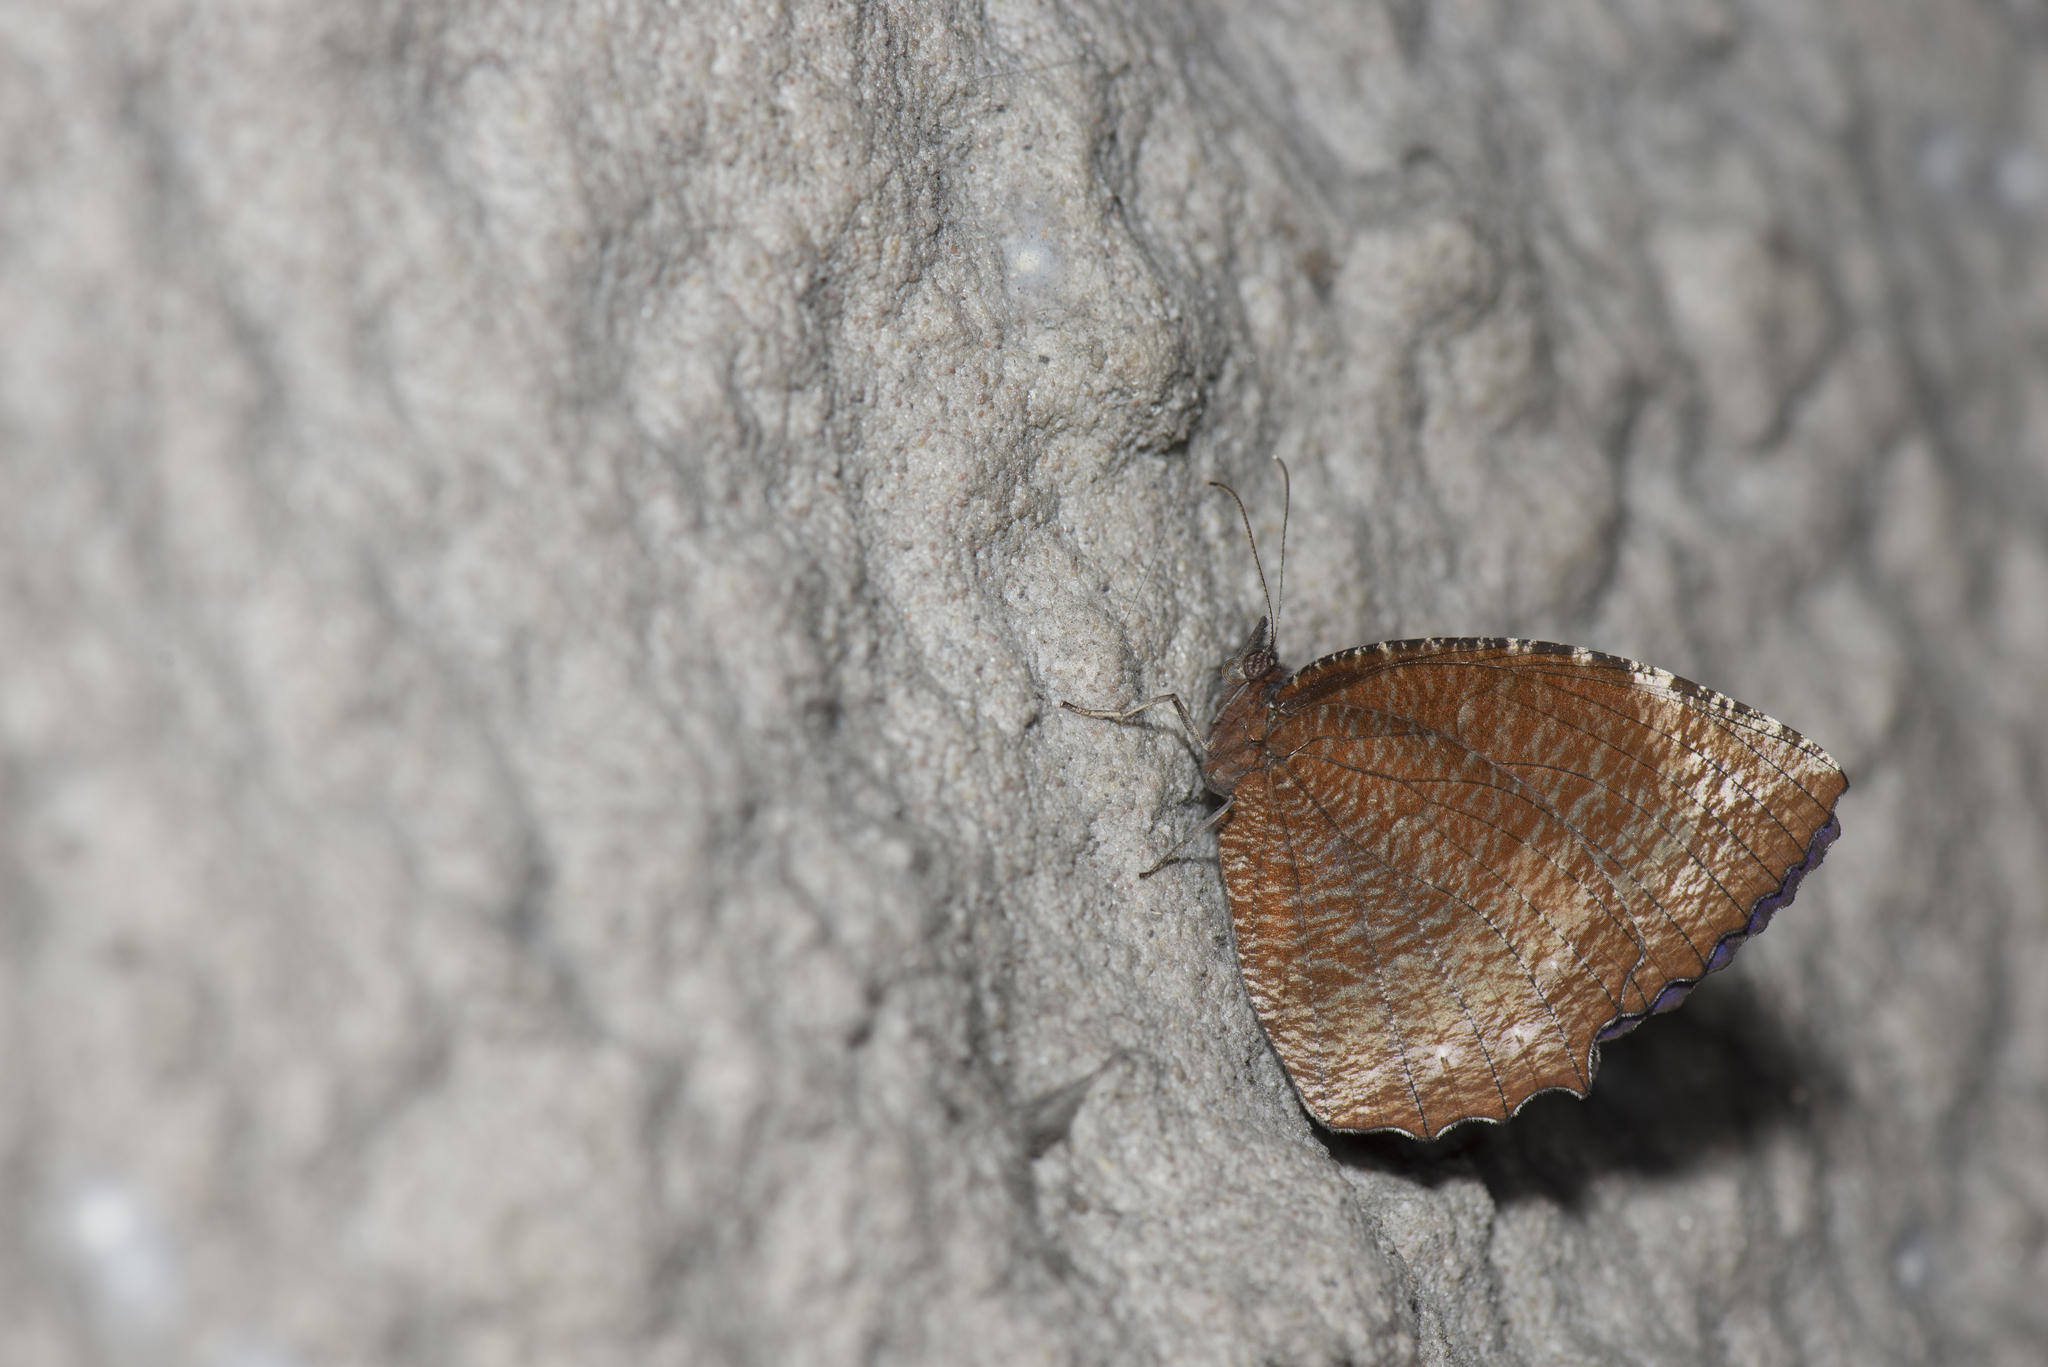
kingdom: Animalia
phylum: Arthropoda
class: Insecta
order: Lepidoptera
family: Nymphalidae
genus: Elymnias
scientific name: Elymnias hypermnestra
